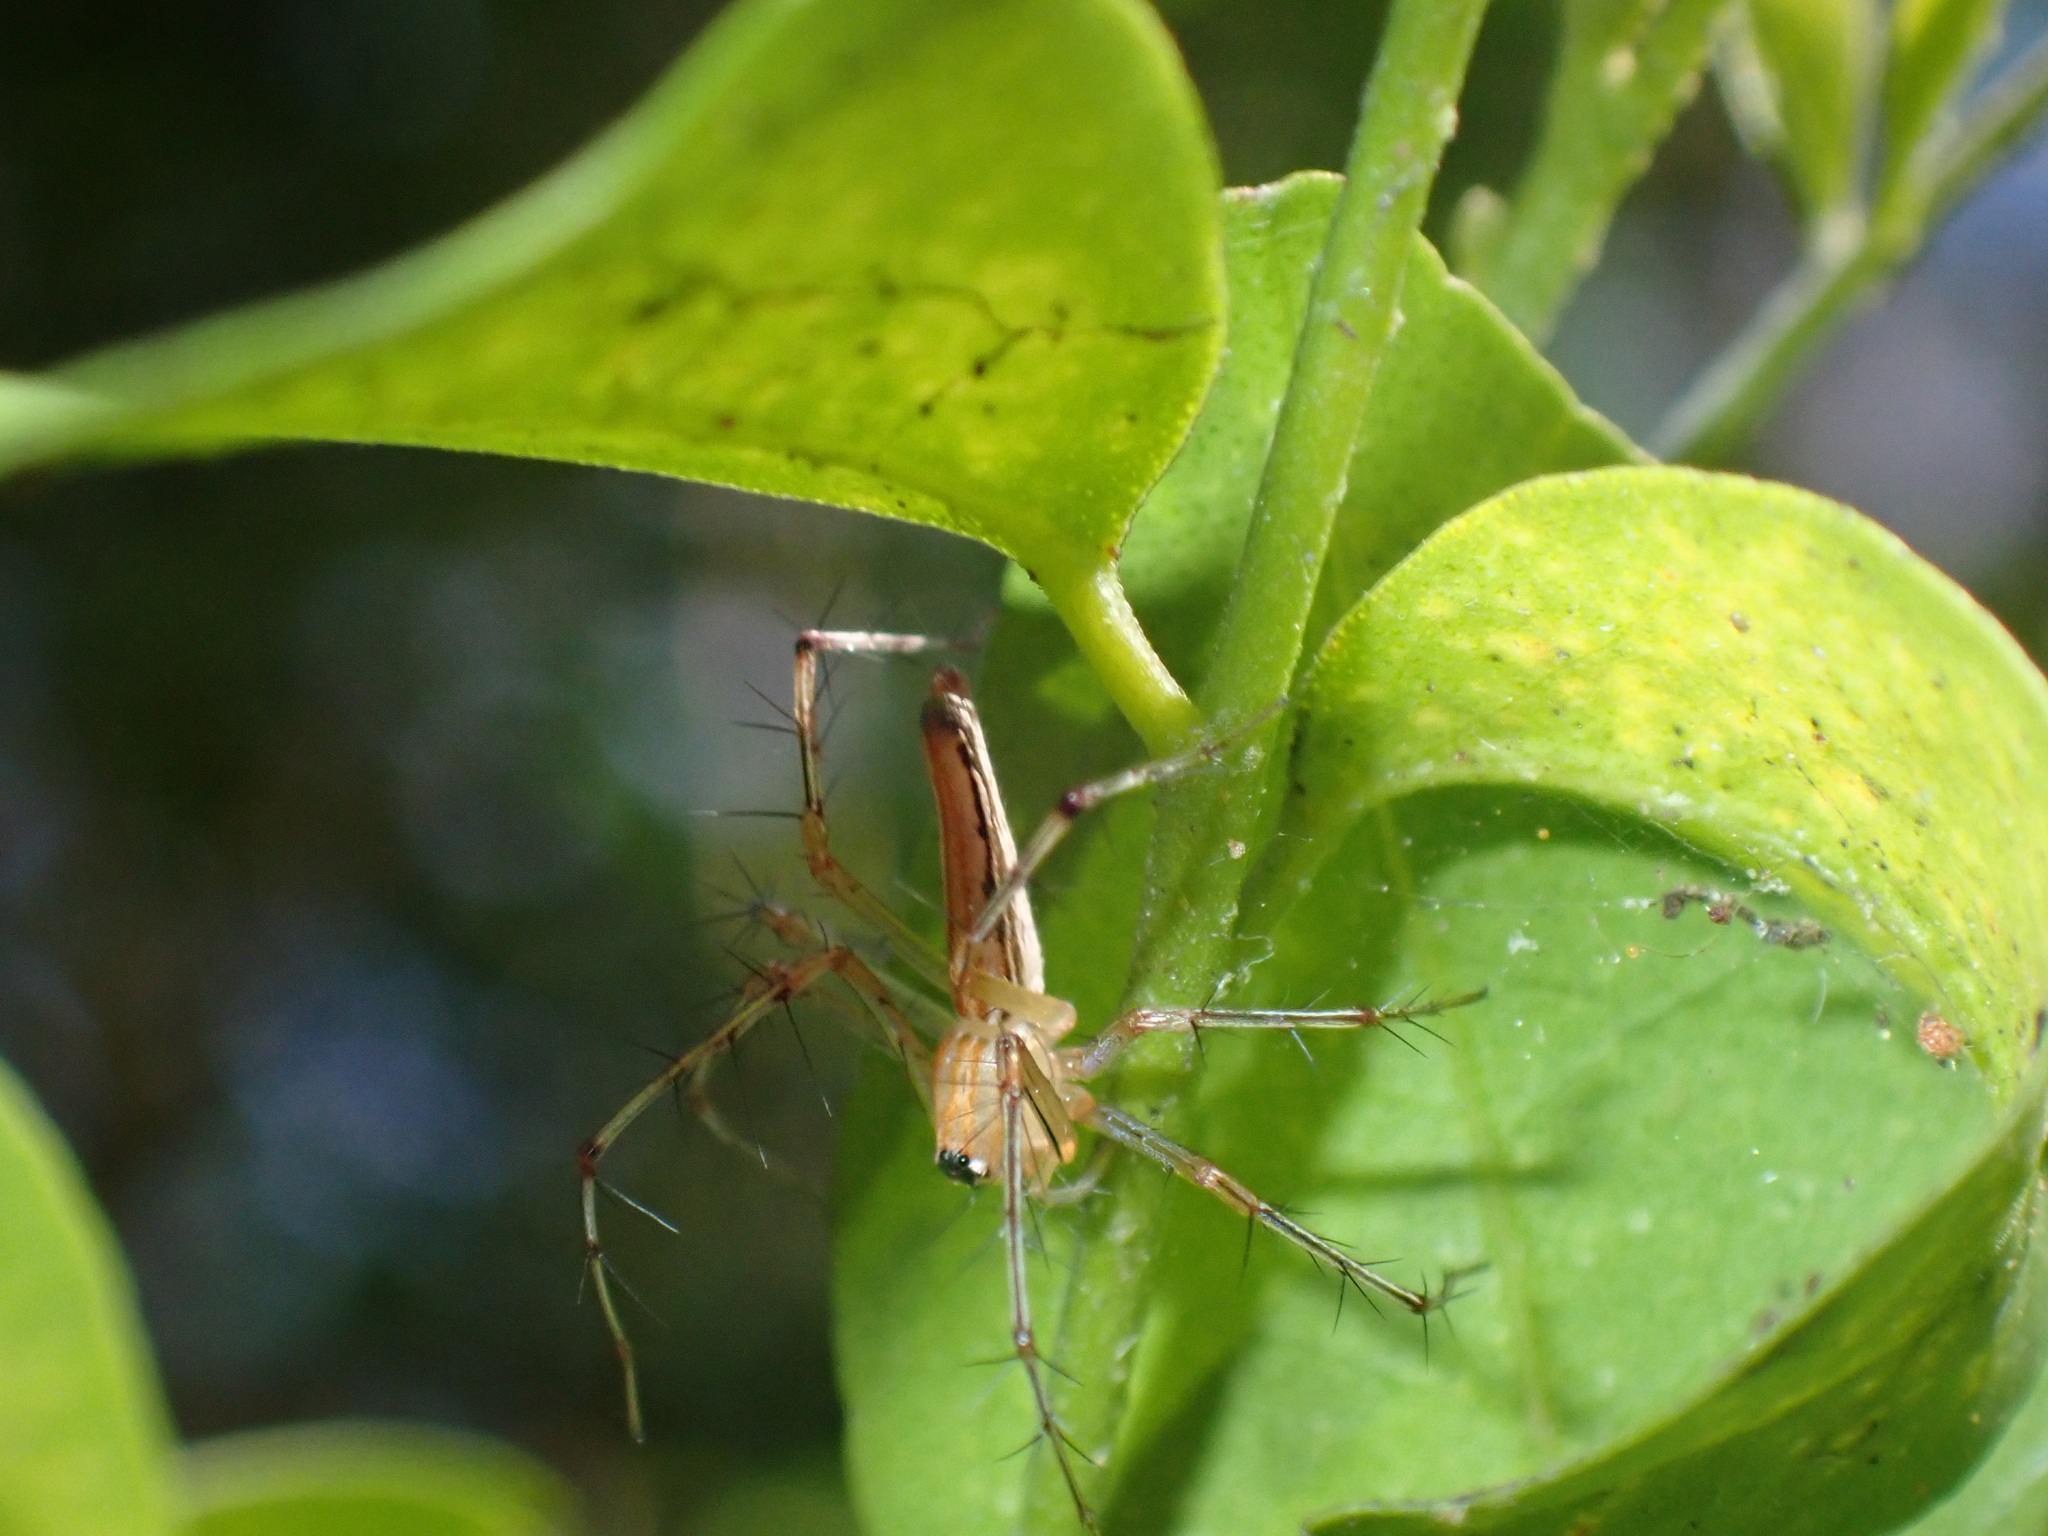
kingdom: Animalia
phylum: Arthropoda
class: Arachnida
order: Araneae
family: Oxyopidae
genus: Oxyopes
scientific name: Oxyopes macilentus
